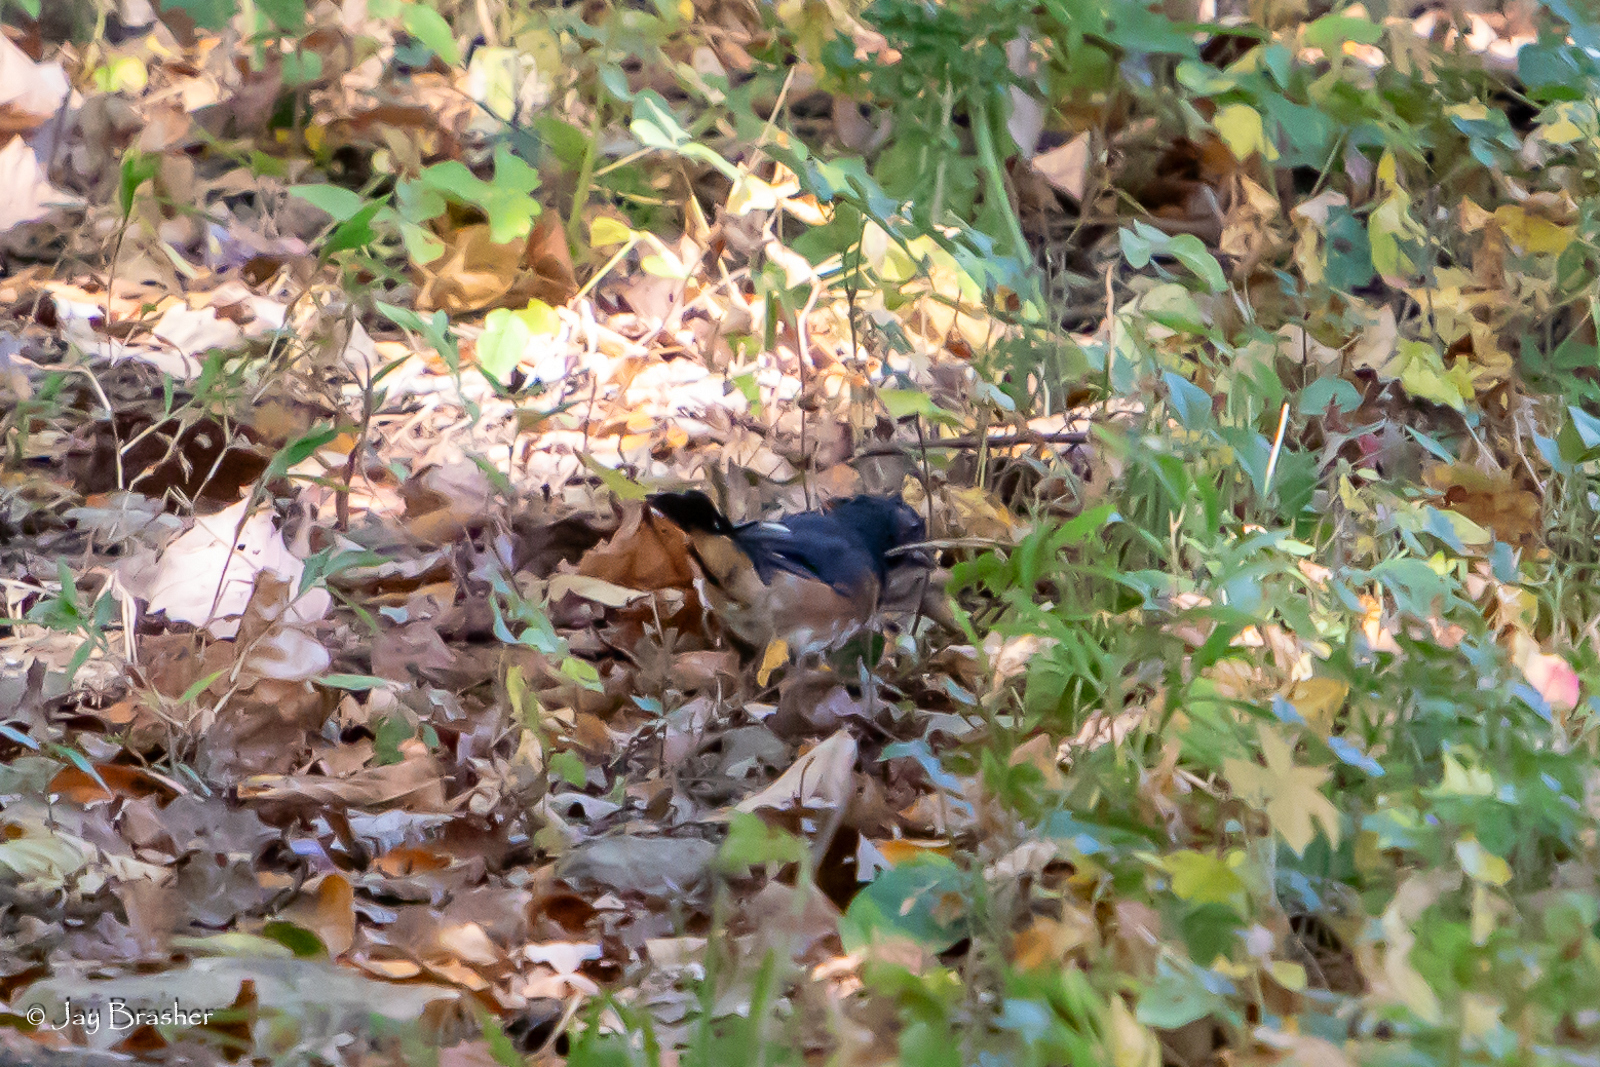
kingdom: Animalia
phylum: Chordata
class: Aves
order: Passeriformes
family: Passerellidae
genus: Pipilo
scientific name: Pipilo erythrophthalmus
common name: Eastern towhee
